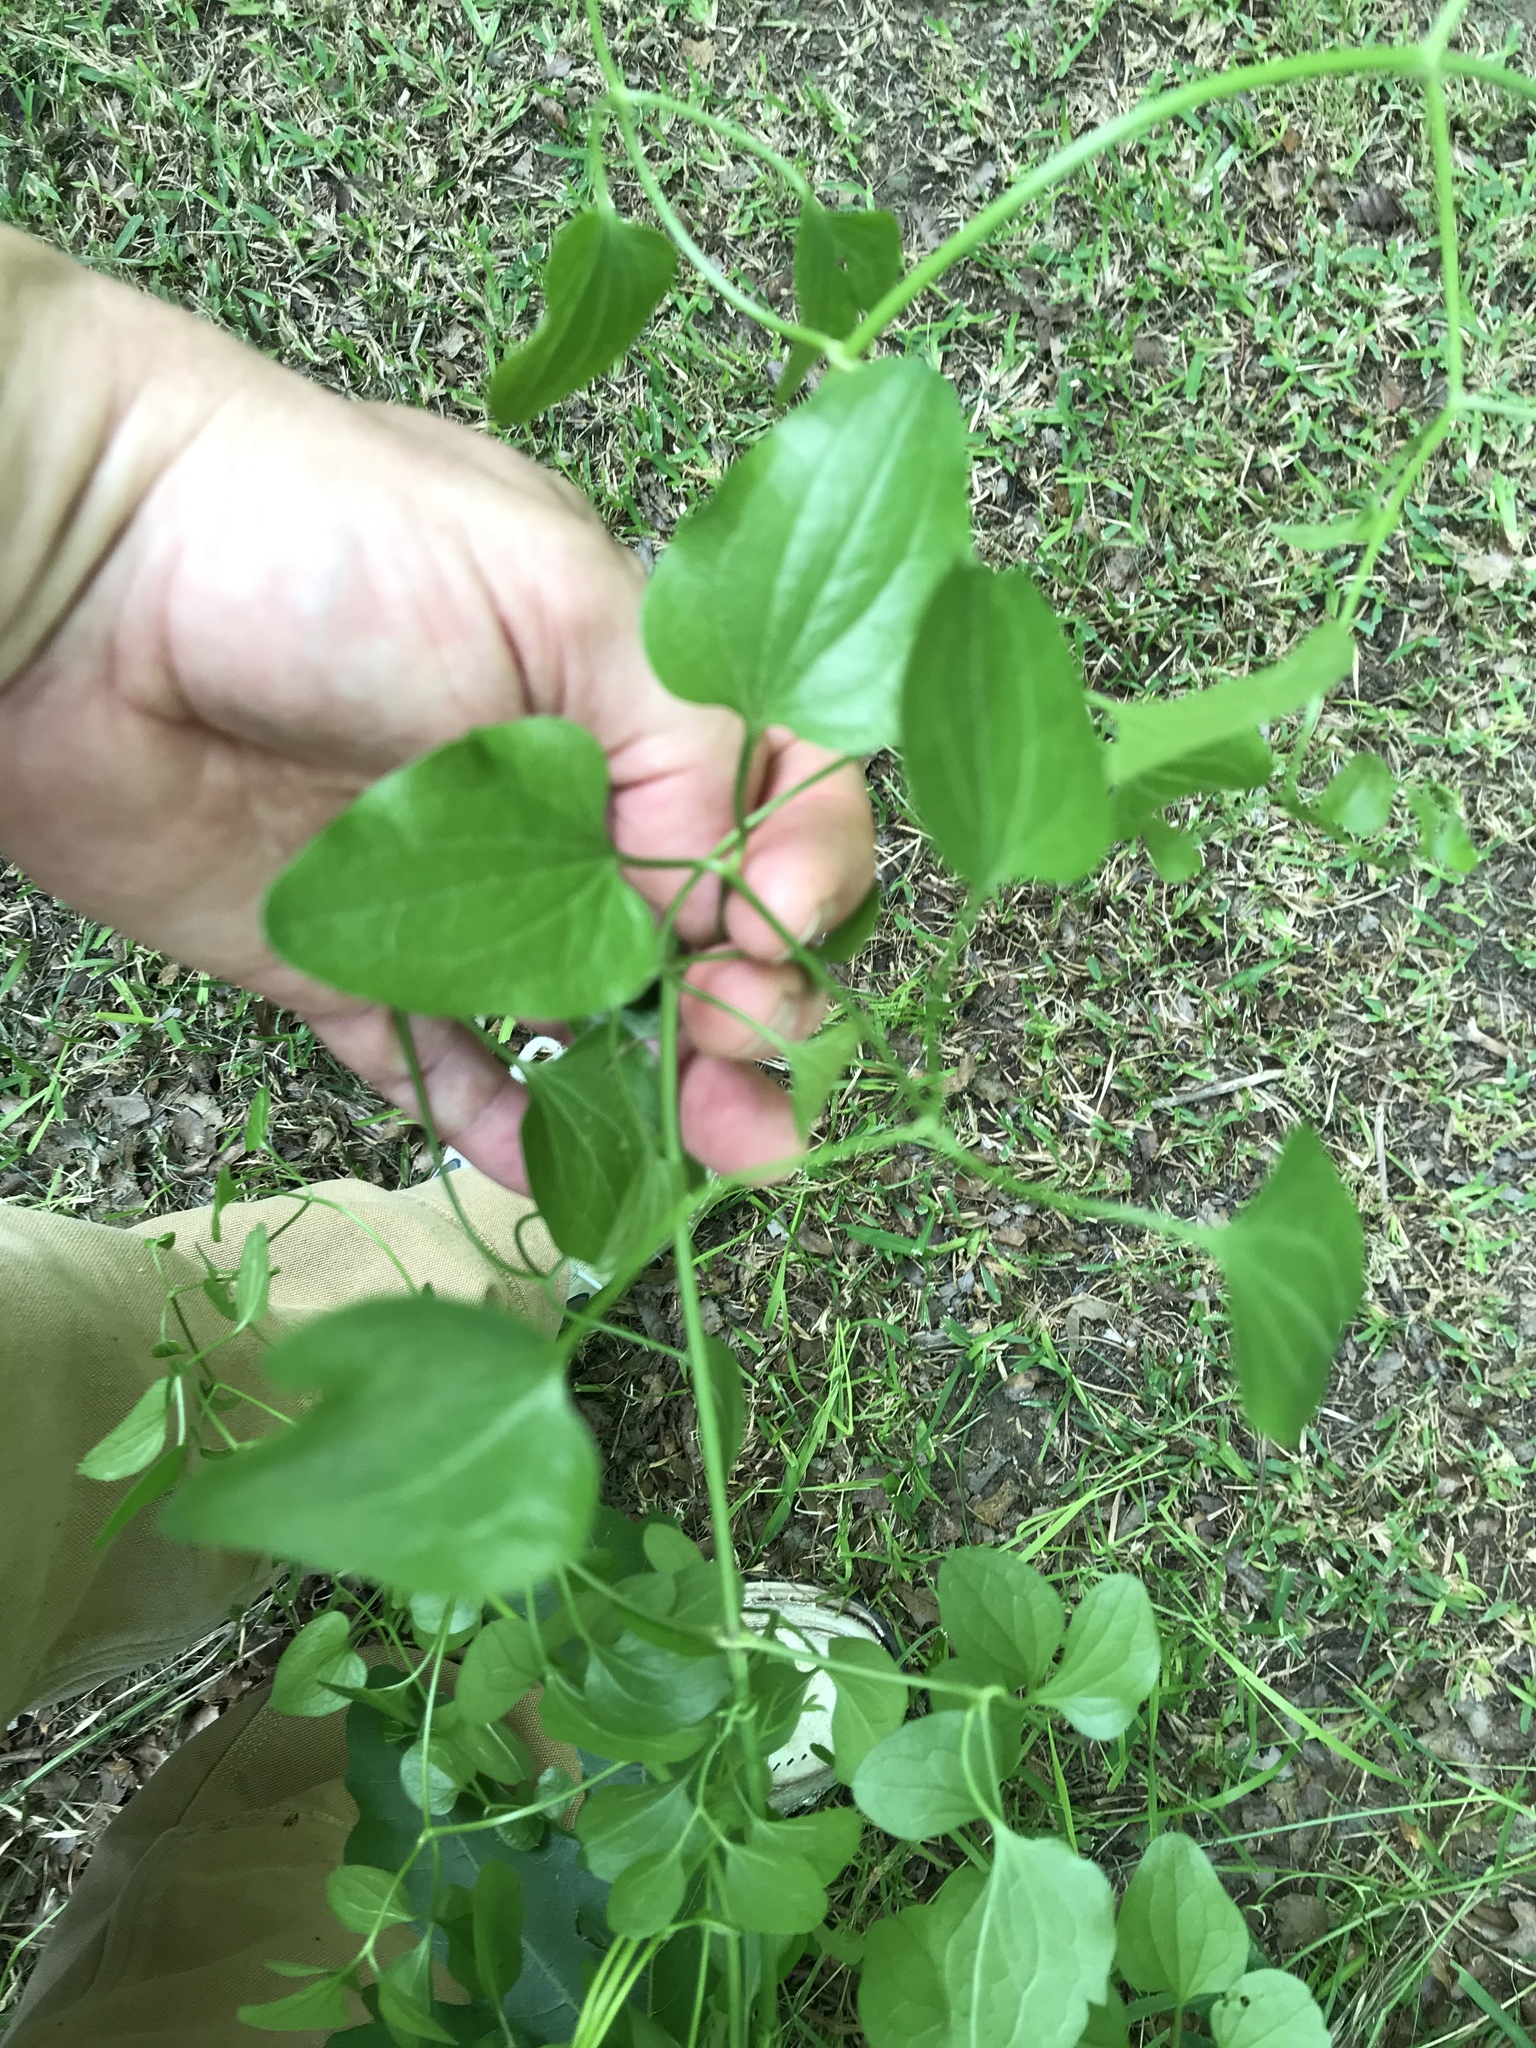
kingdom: Plantae
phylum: Tracheophyta
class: Magnoliopsida
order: Ranunculales
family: Ranunculaceae
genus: Clematis
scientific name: Clematis terniflora
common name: Sweet autumn clematis
